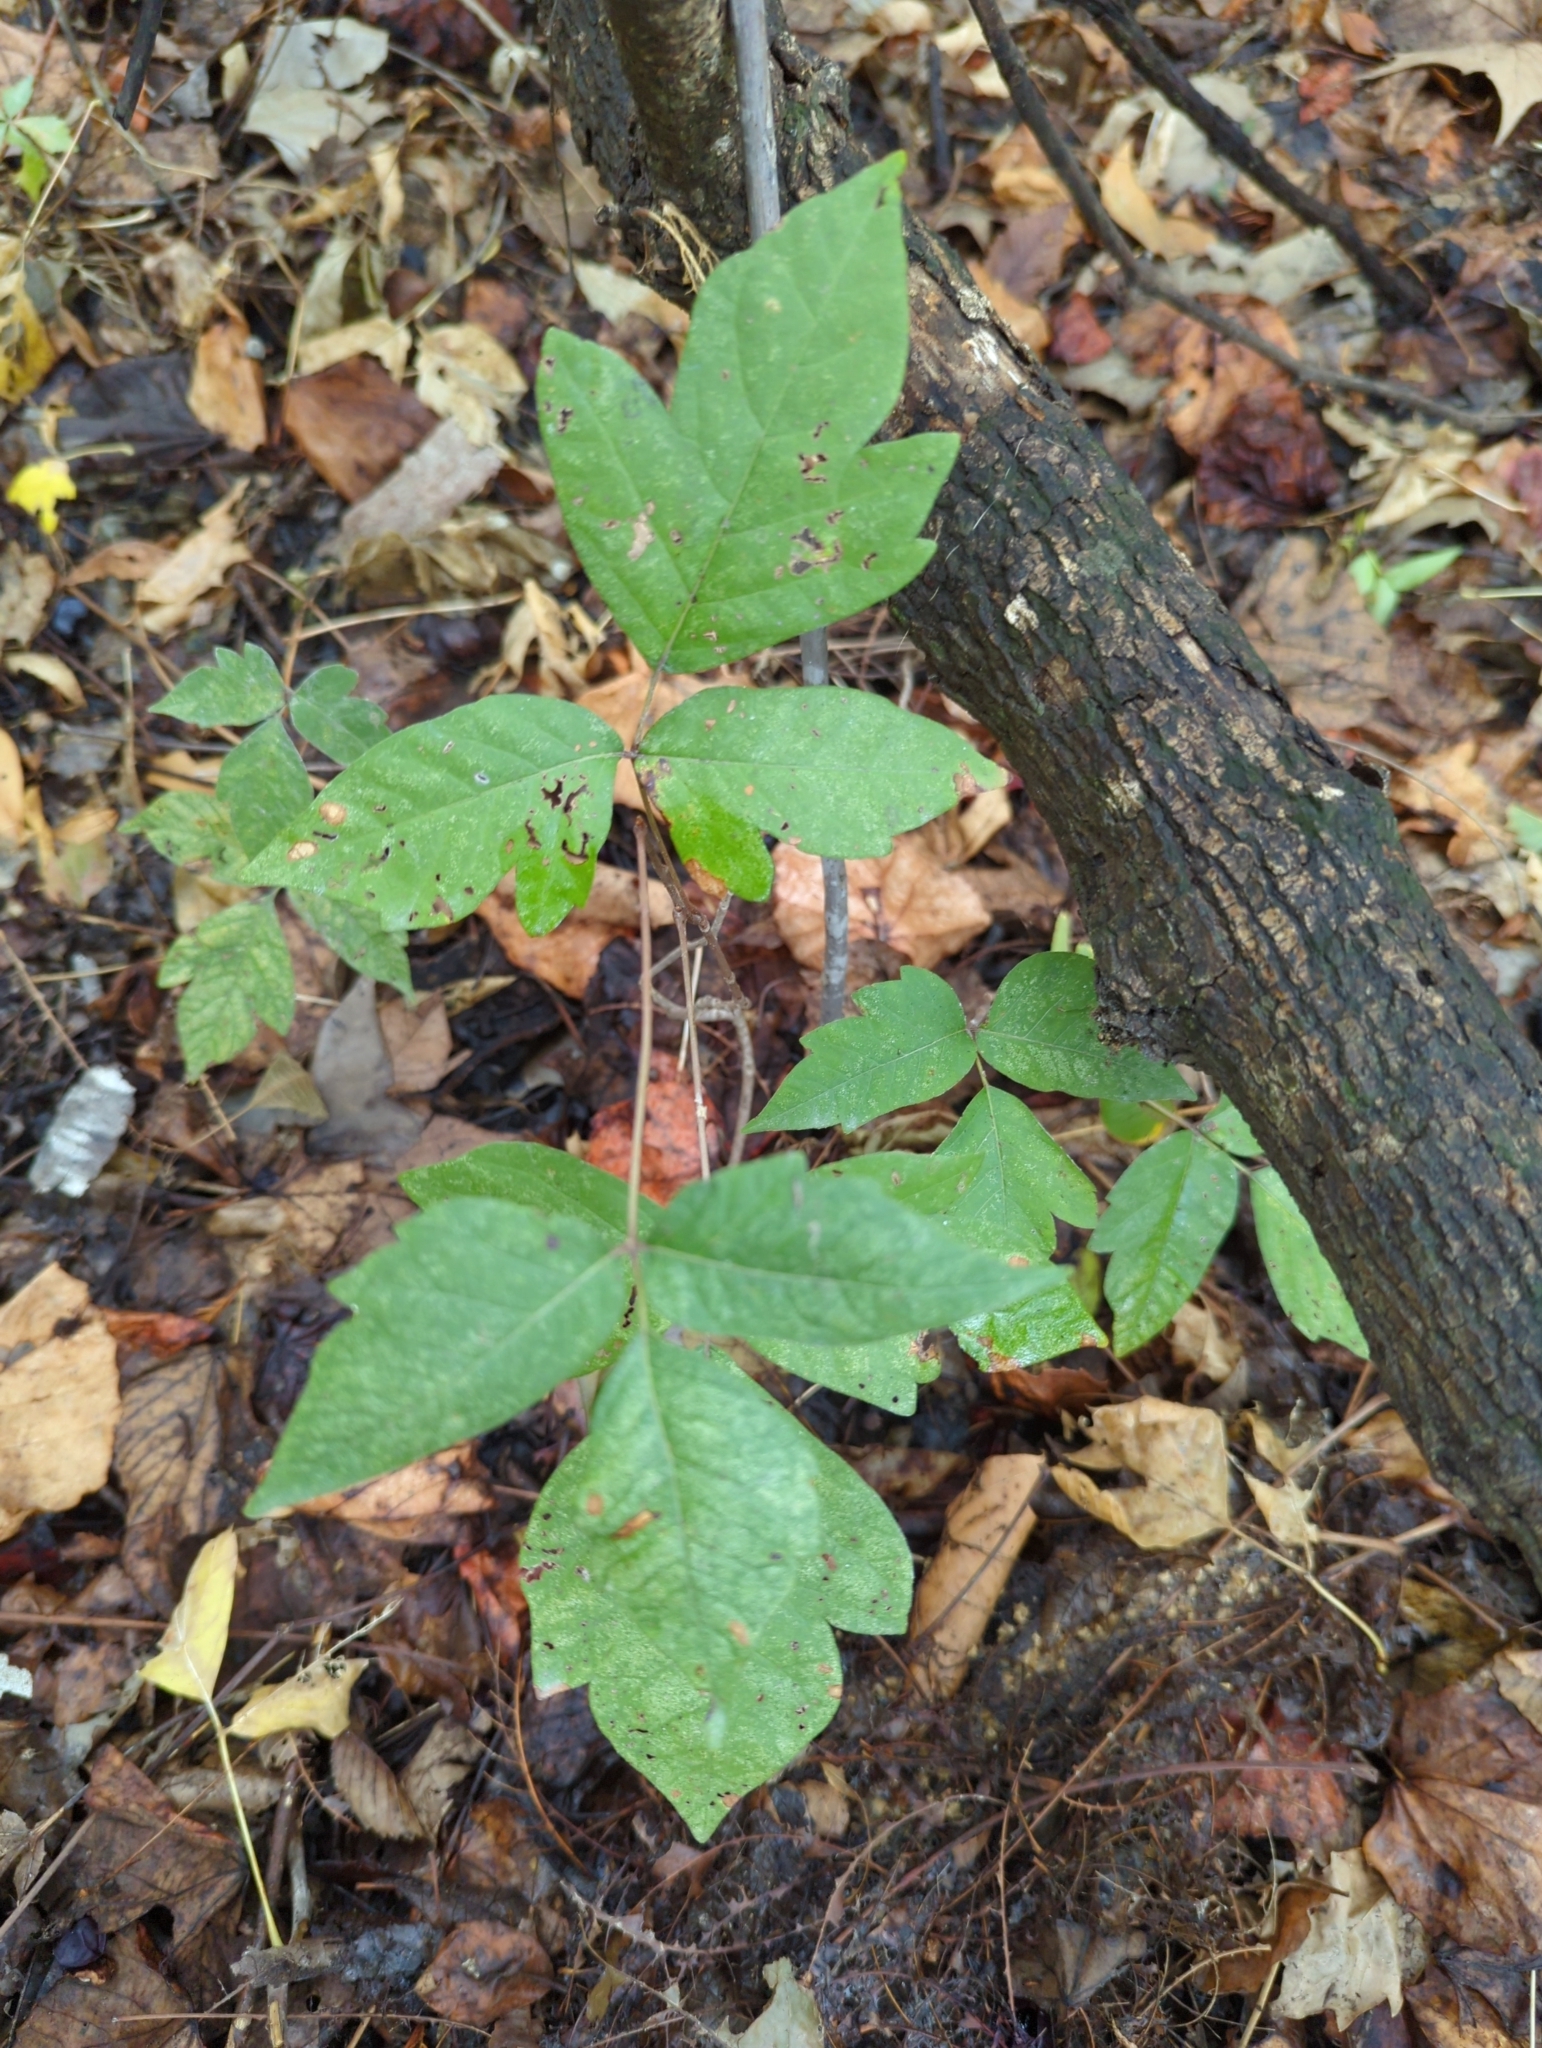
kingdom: Plantae
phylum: Tracheophyta
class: Magnoliopsida
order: Sapindales
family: Anacardiaceae
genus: Toxicodendron
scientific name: Toxicodendron radicans
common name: Poison ivy
